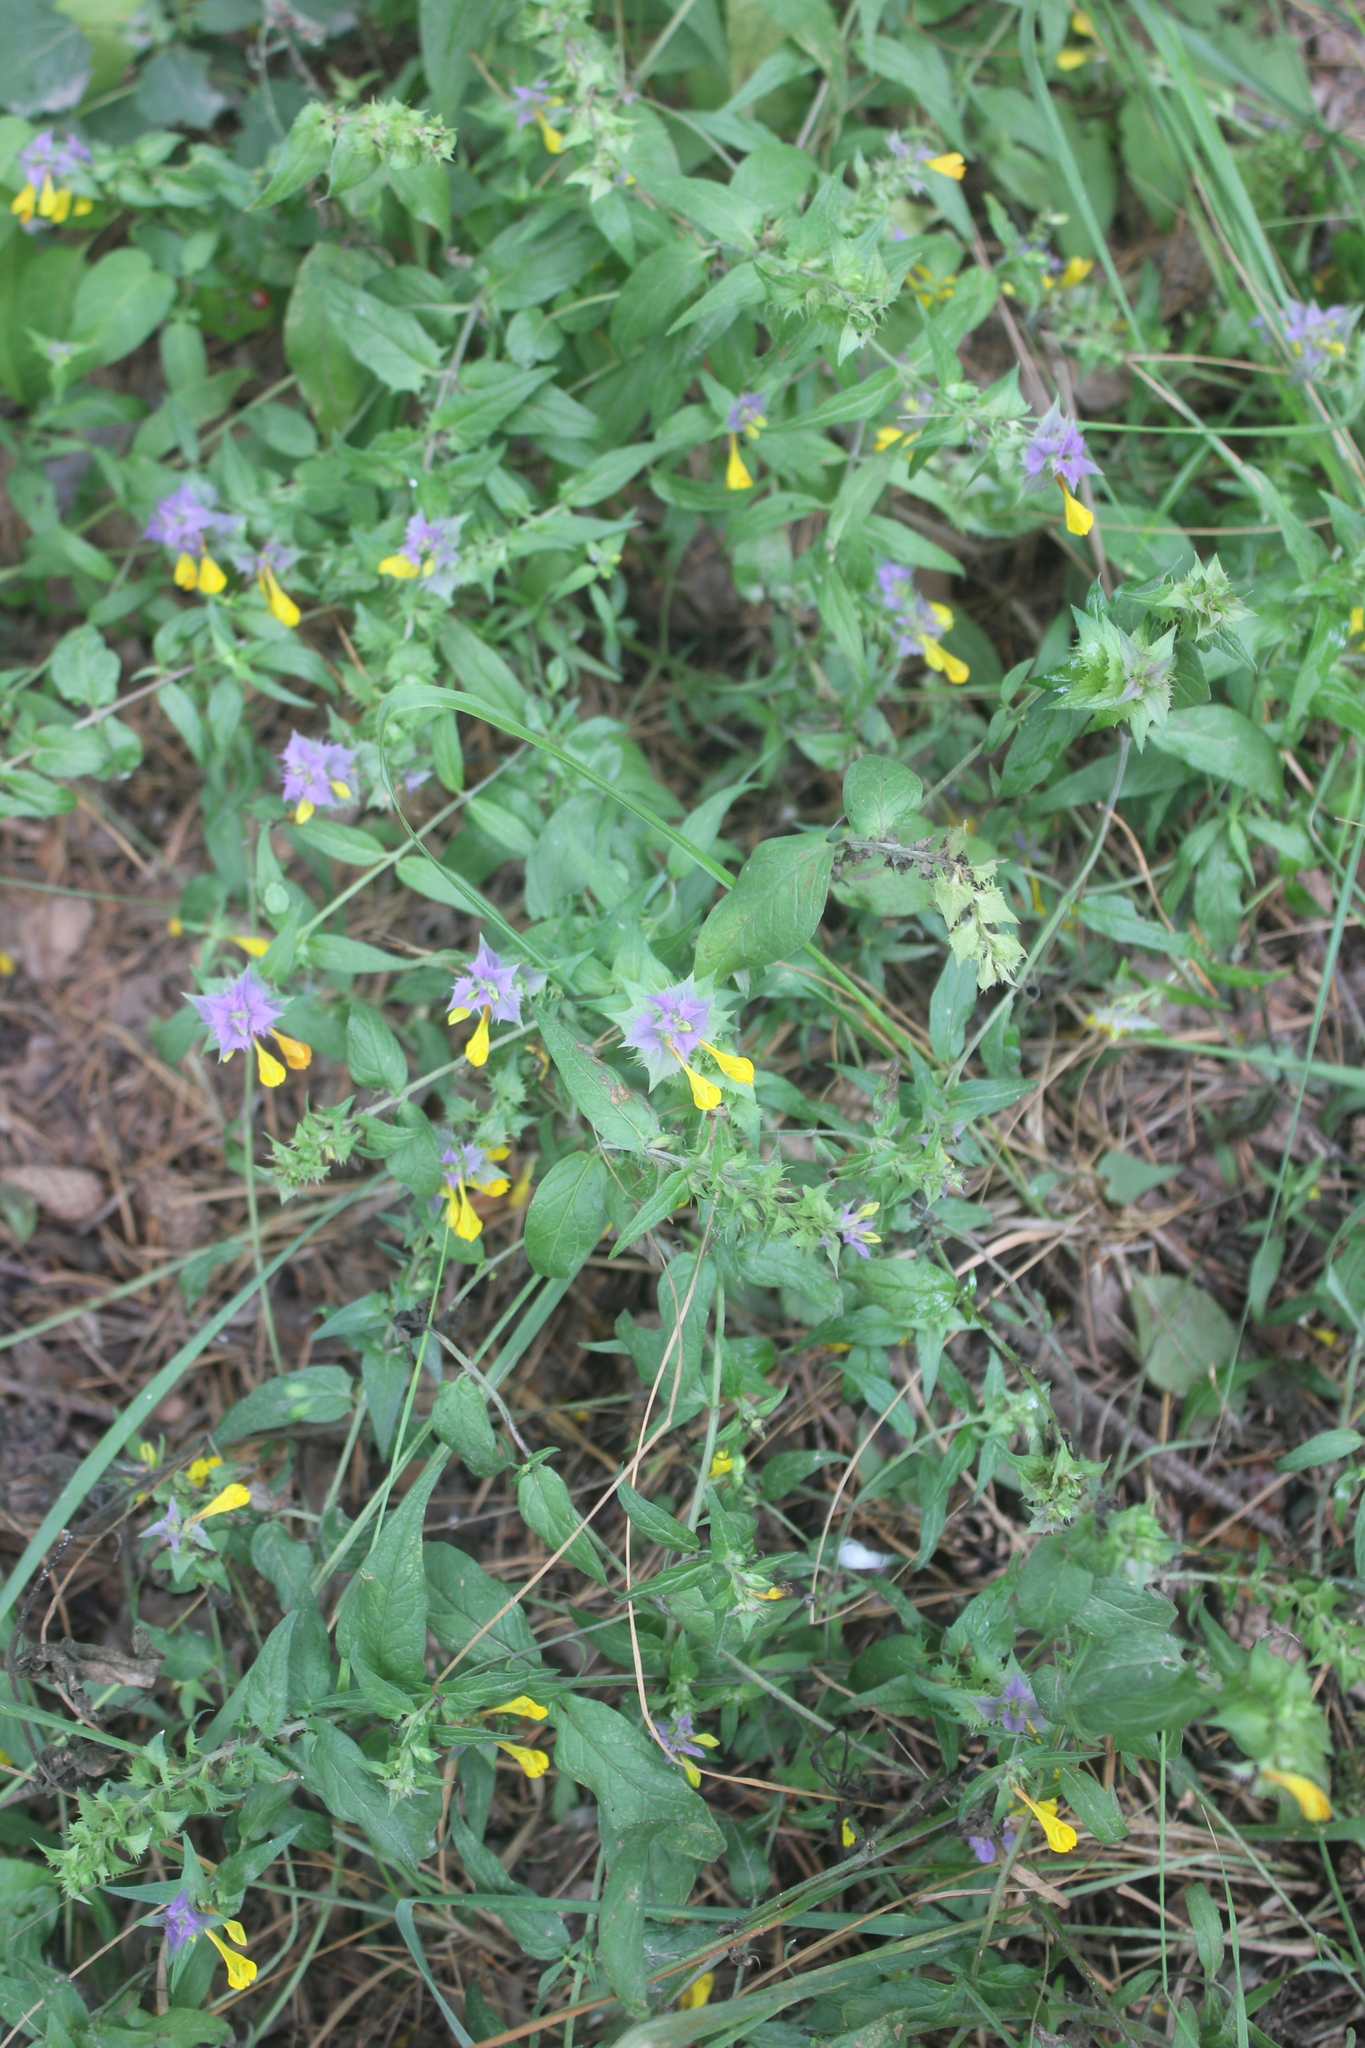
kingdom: Plantae
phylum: Tracheophyta
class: Magnoliopsida
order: Lamiales
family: Orobanchaceae
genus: Melampyrum
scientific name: Melampyrum nemorosum
